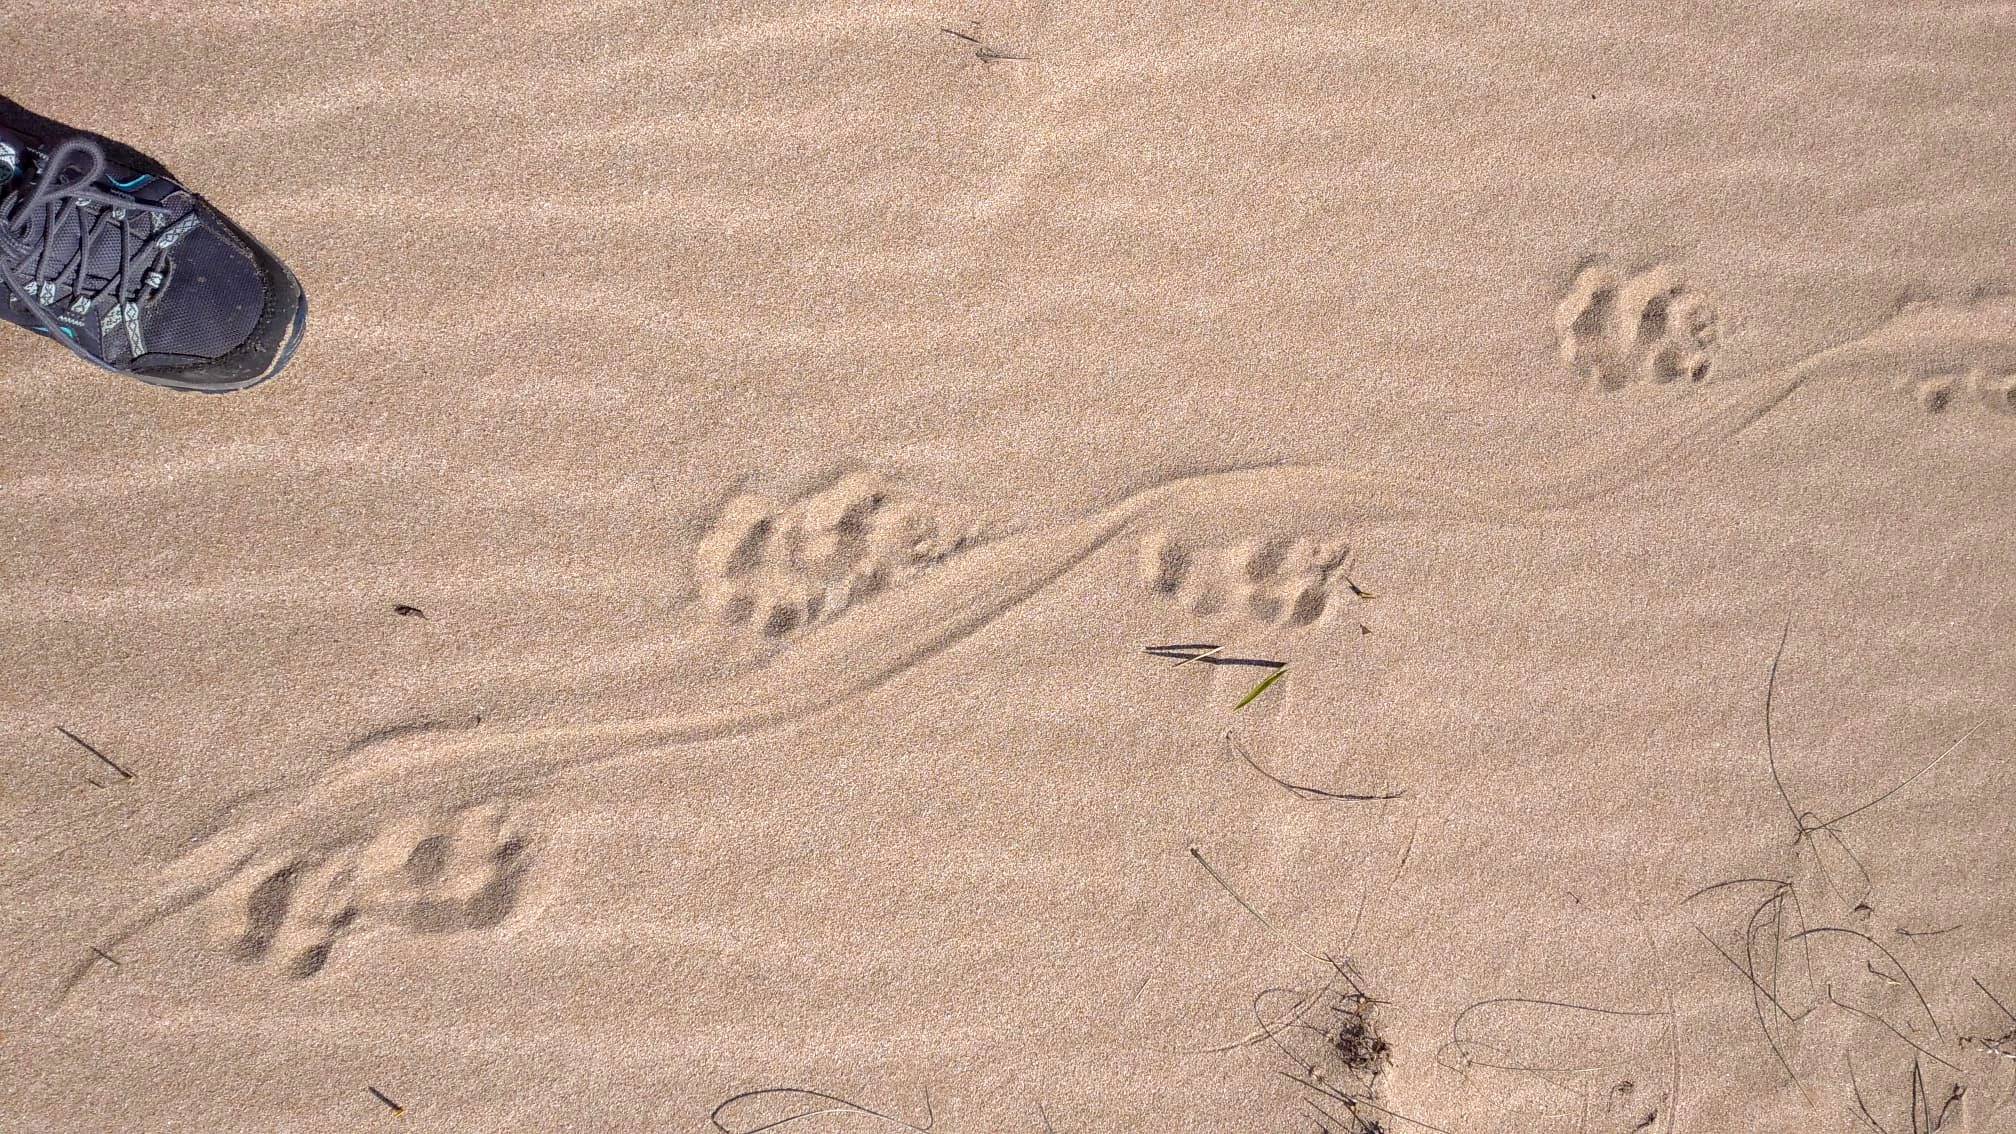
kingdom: Animalia
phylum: Chordata
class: Mammalia
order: Carnivora
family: Mustelidae
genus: Lutra
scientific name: Lutra lutra
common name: European otter
